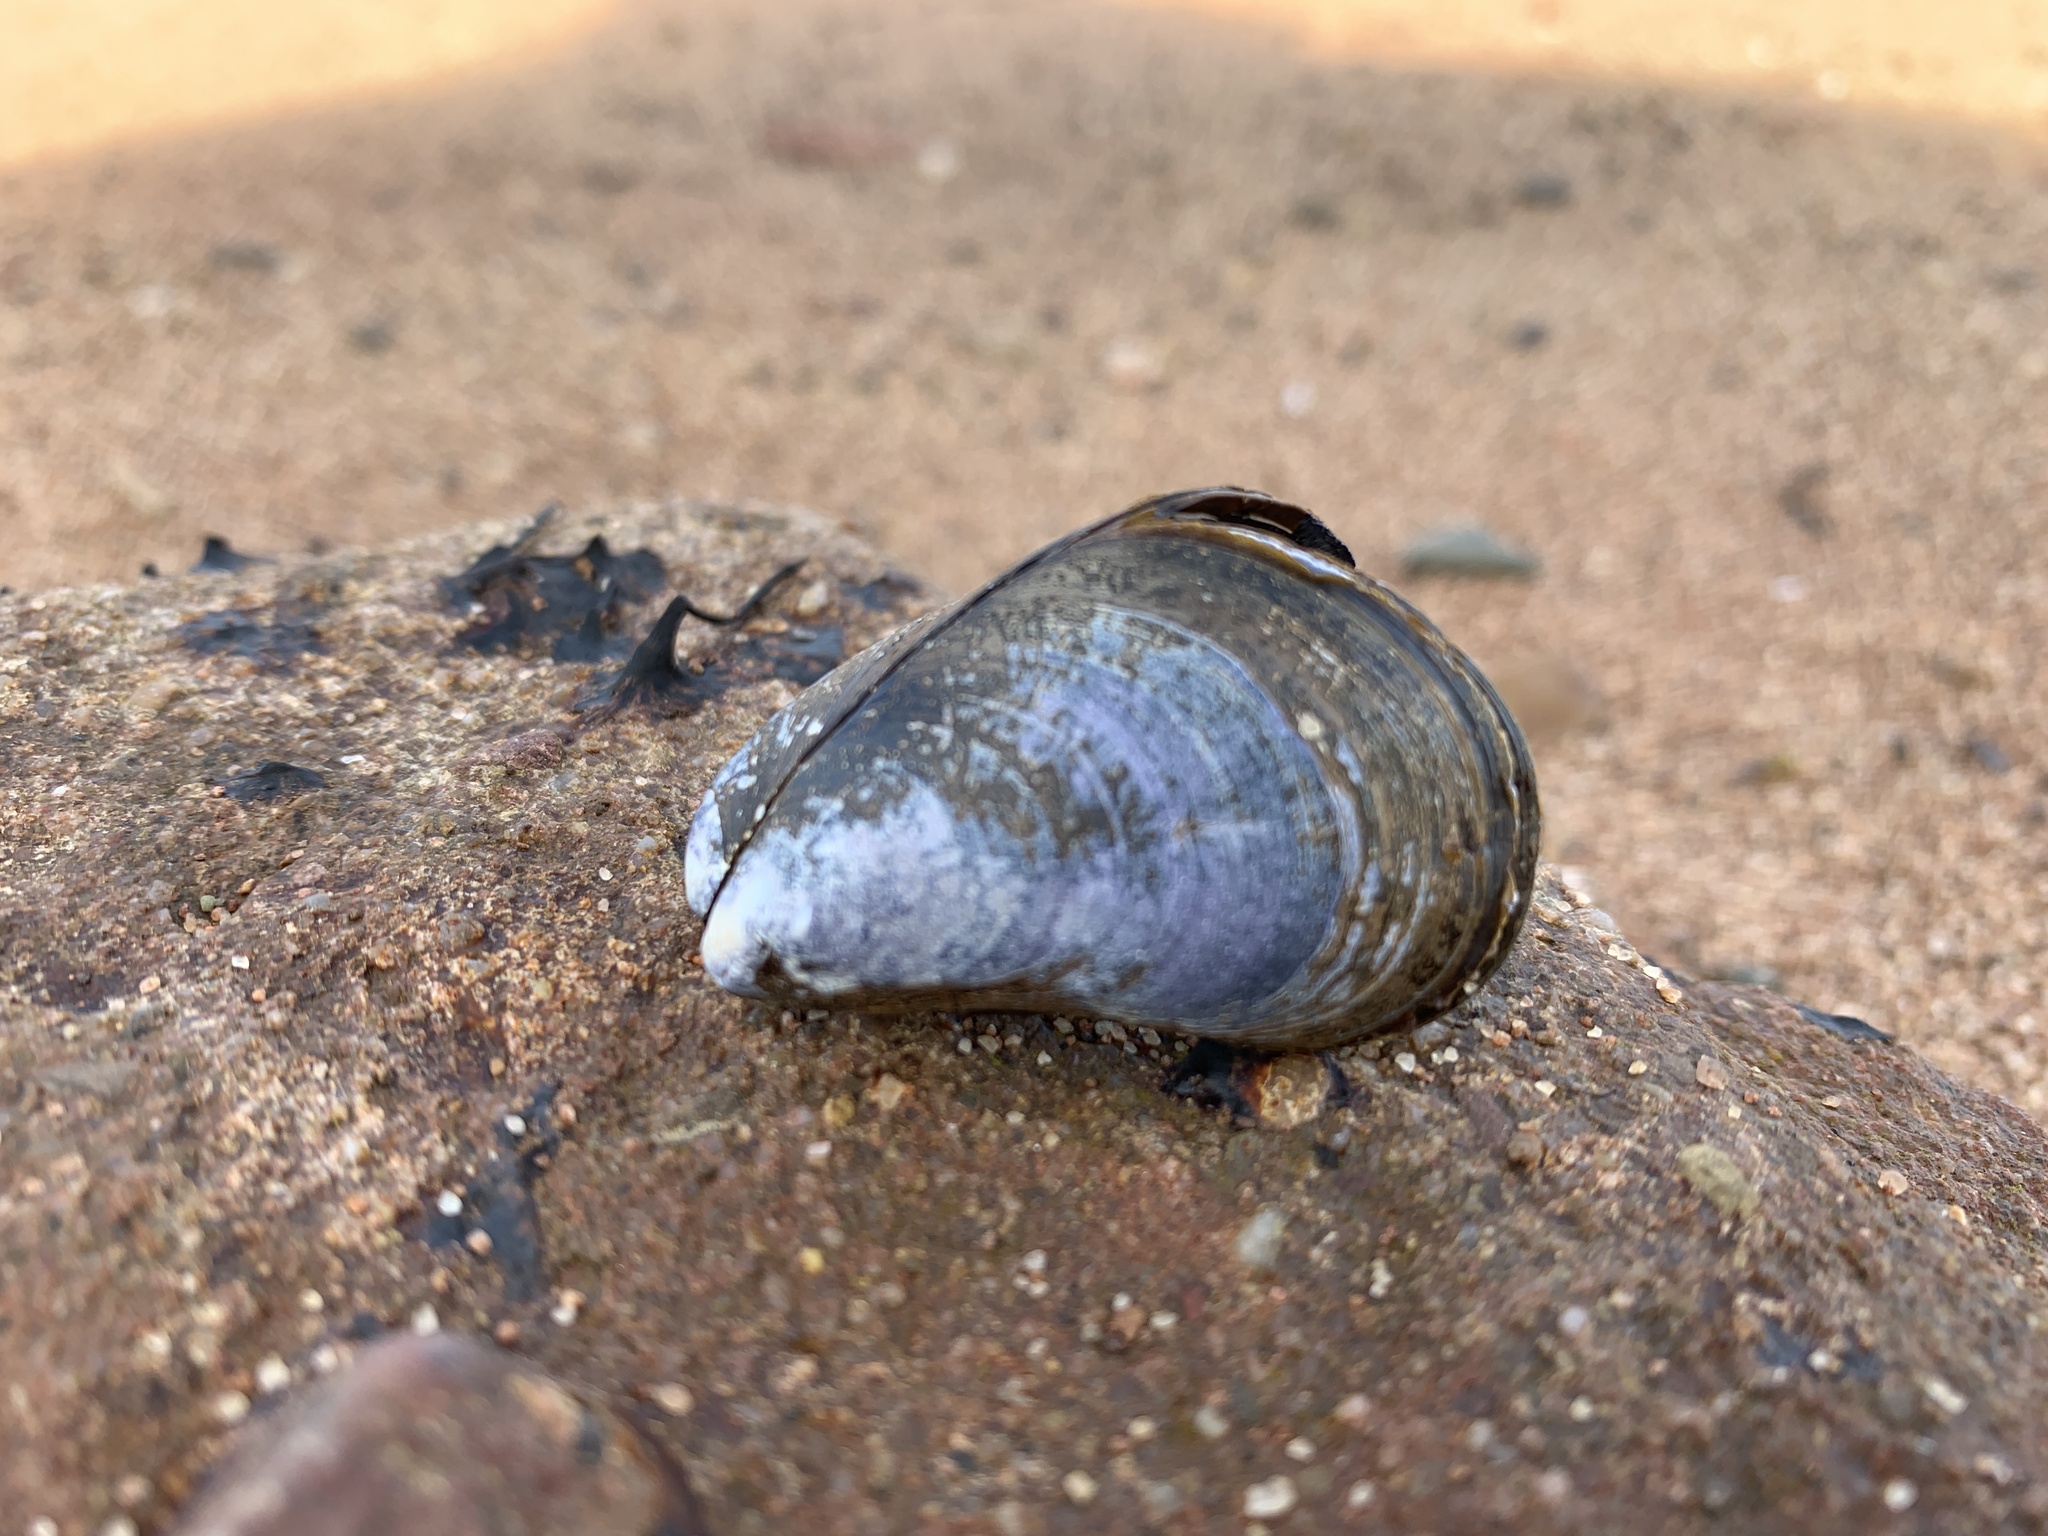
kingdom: Animalia
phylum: Mollusca
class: Bivalvia
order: Mytilida
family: Mytilidae
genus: Mytilus
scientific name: Mytilus
